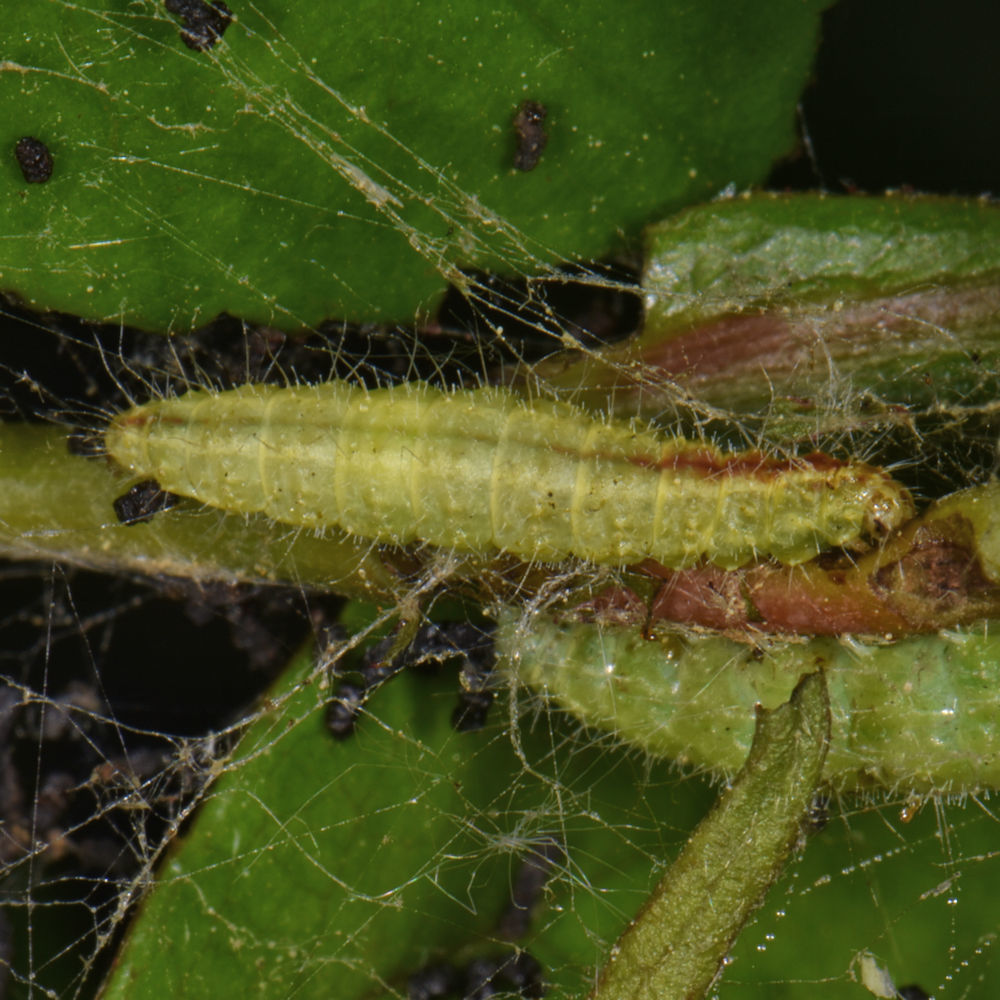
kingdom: Animalia
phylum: Arthropoda
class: Insecta
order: Lepidoptera
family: Pterophoridae
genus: Cnaemidophorus
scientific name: Cnaemidophorus rhododactyla
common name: Rose plume
